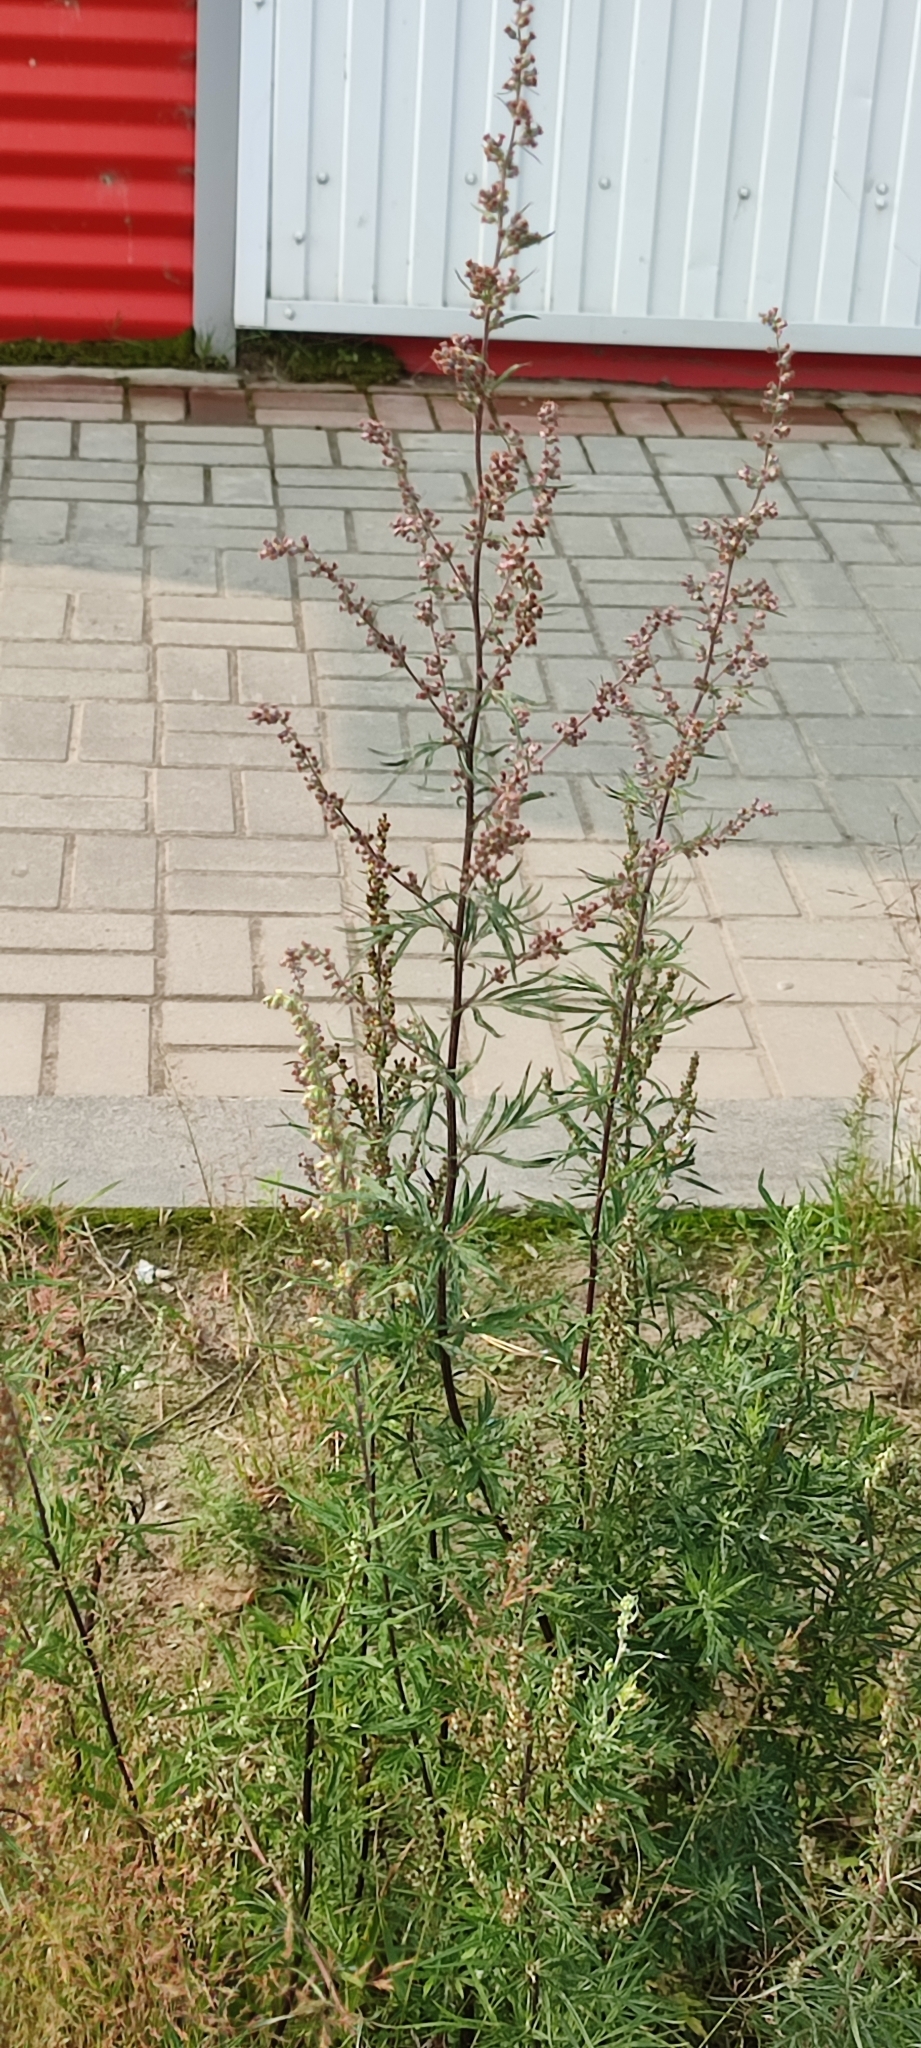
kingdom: Plantae
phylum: Tracheophyta
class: Magnoliopsida
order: Asterales
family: Asteraceae
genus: Artemisia
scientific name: Artemisia vulgaris
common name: Mugwort
